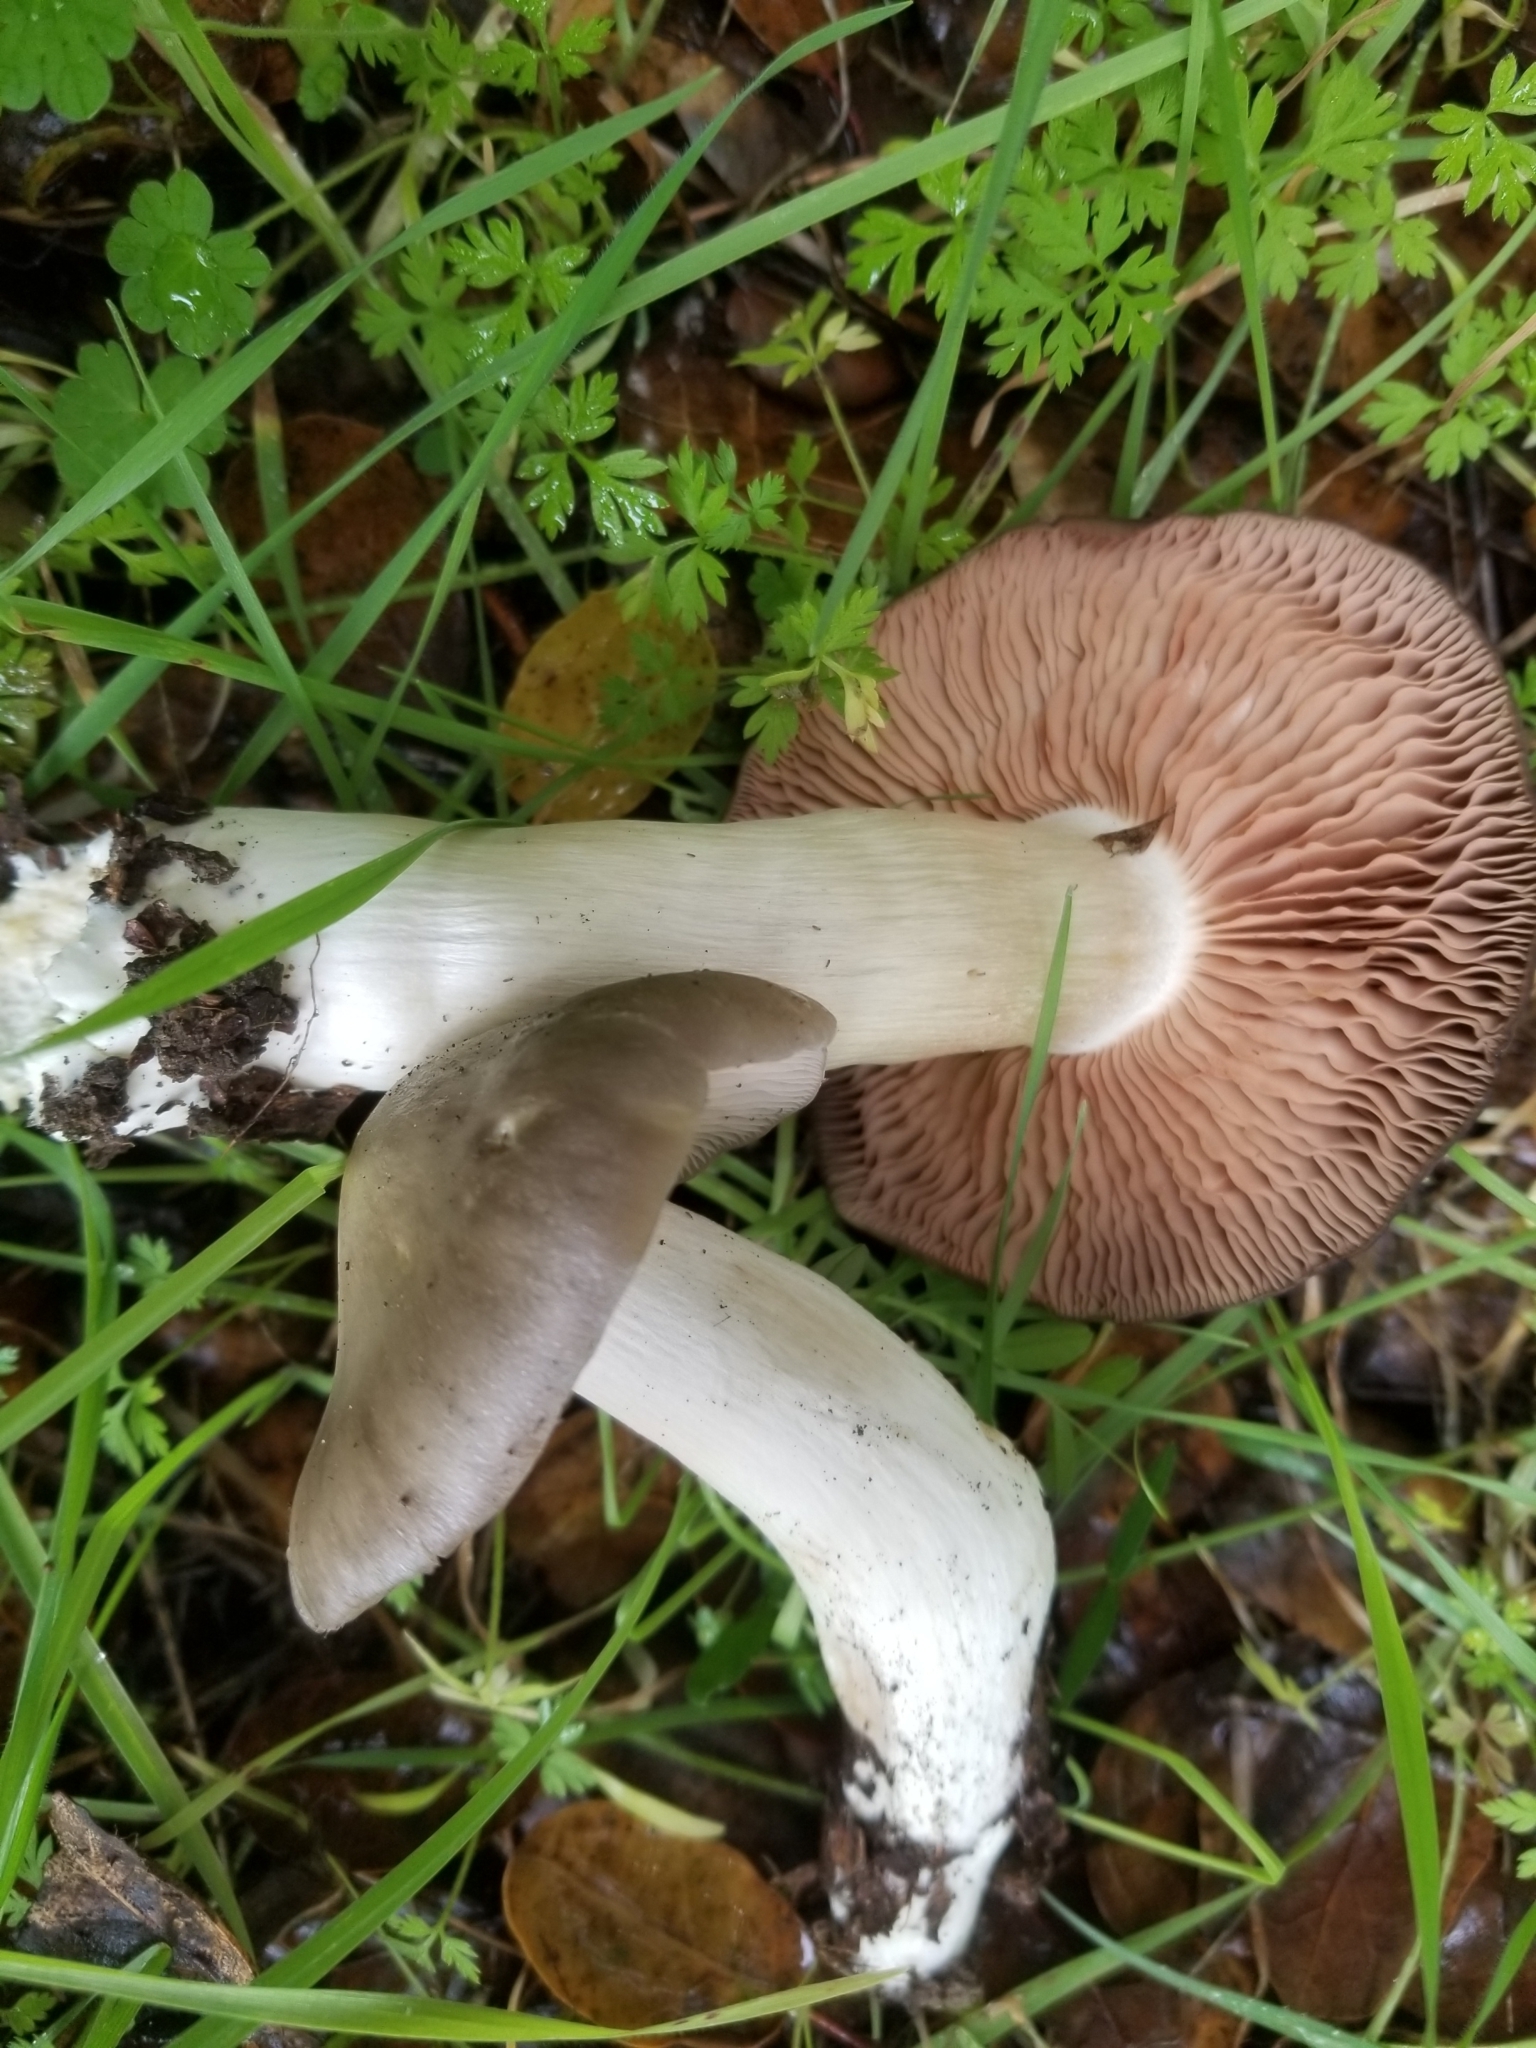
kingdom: Fungi
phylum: Basidiomycota
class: Agaricomycetes
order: Agaricales
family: Entolomataceae
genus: Entoloma
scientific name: Entoloma ferruginans
